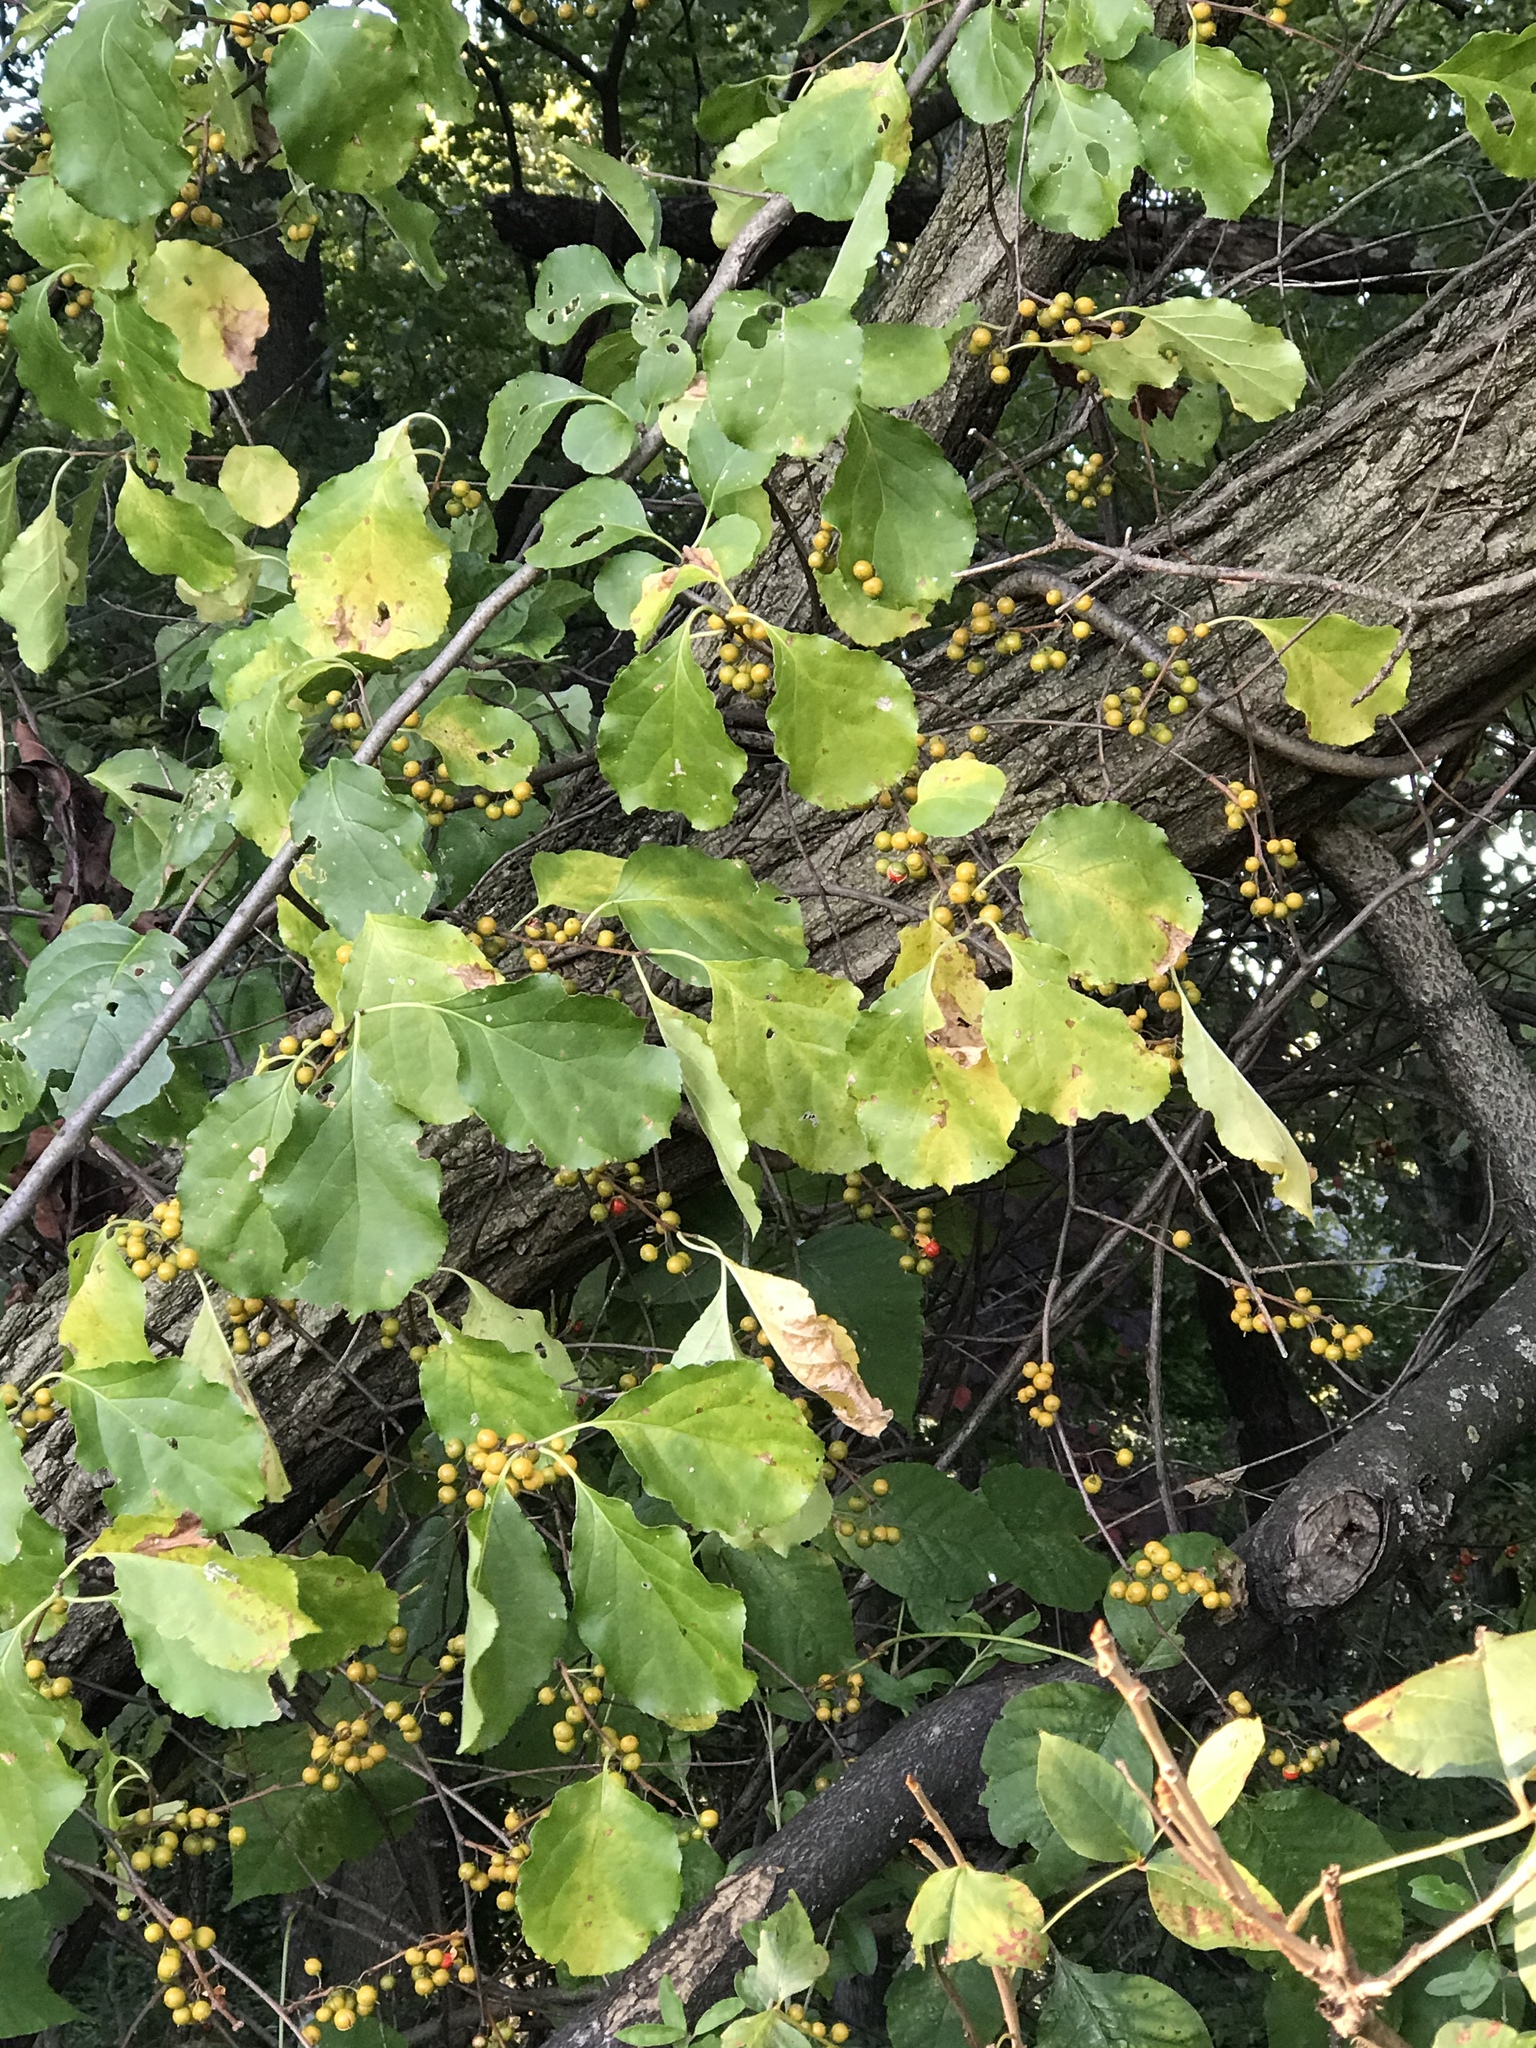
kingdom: Plantae
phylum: Tracheophyta
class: Magnoliopsida
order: Celastrales
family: Celastraceae
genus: Celastrus
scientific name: Celastrus orbiculatus
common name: Oriental bittersweet
